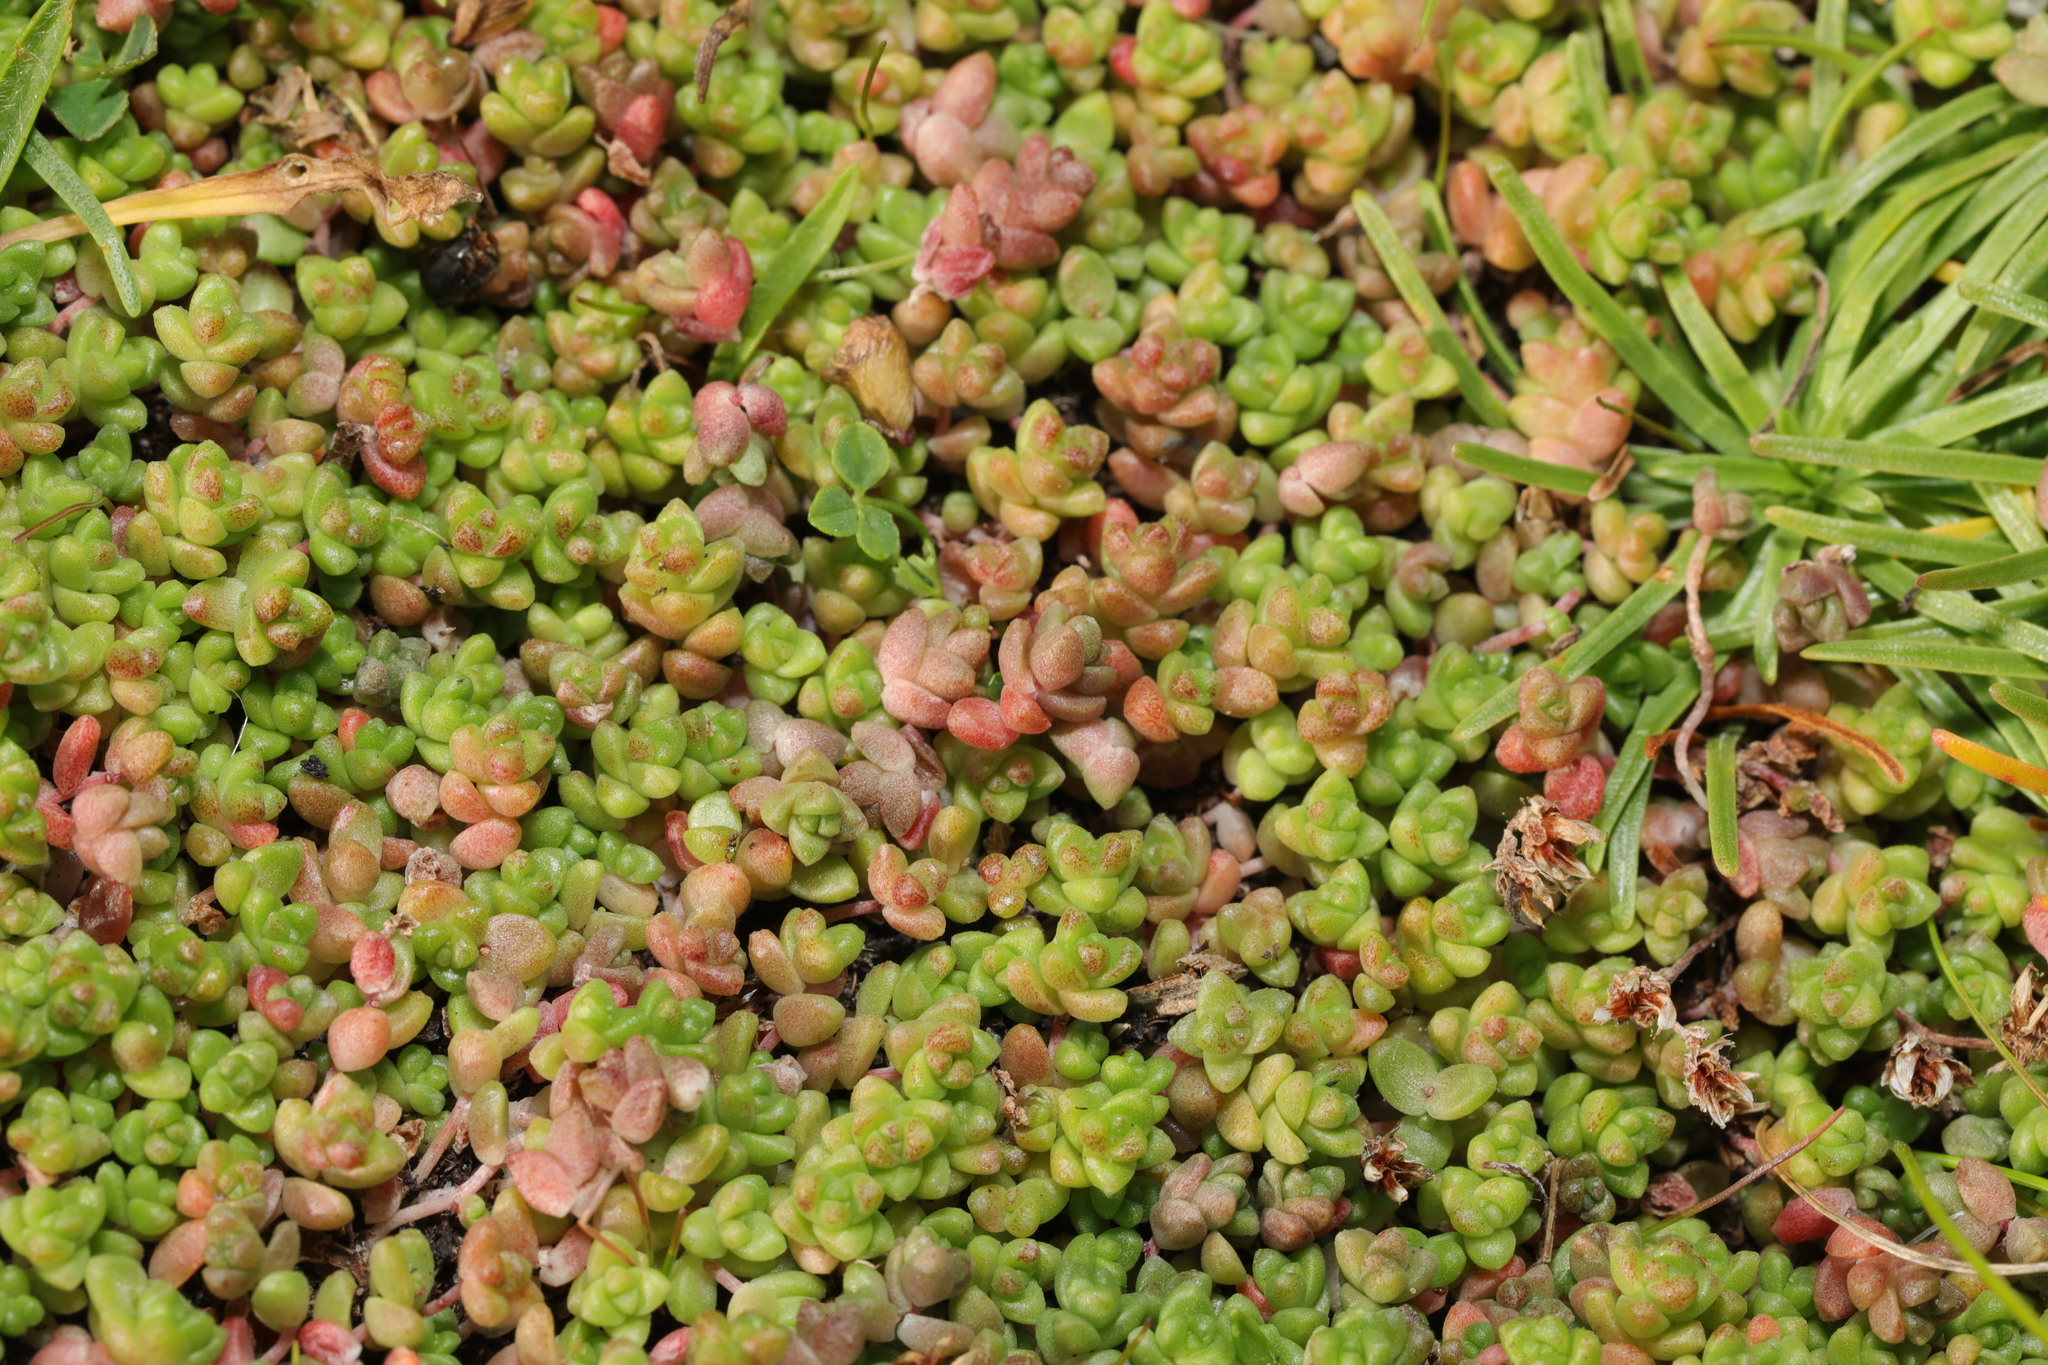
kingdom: Plantae
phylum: Tracheophyta
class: Magnoliopsida
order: Saxifragales
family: Crassulaceae
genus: Sedum
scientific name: Sedum anglicum
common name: English stonecrop
